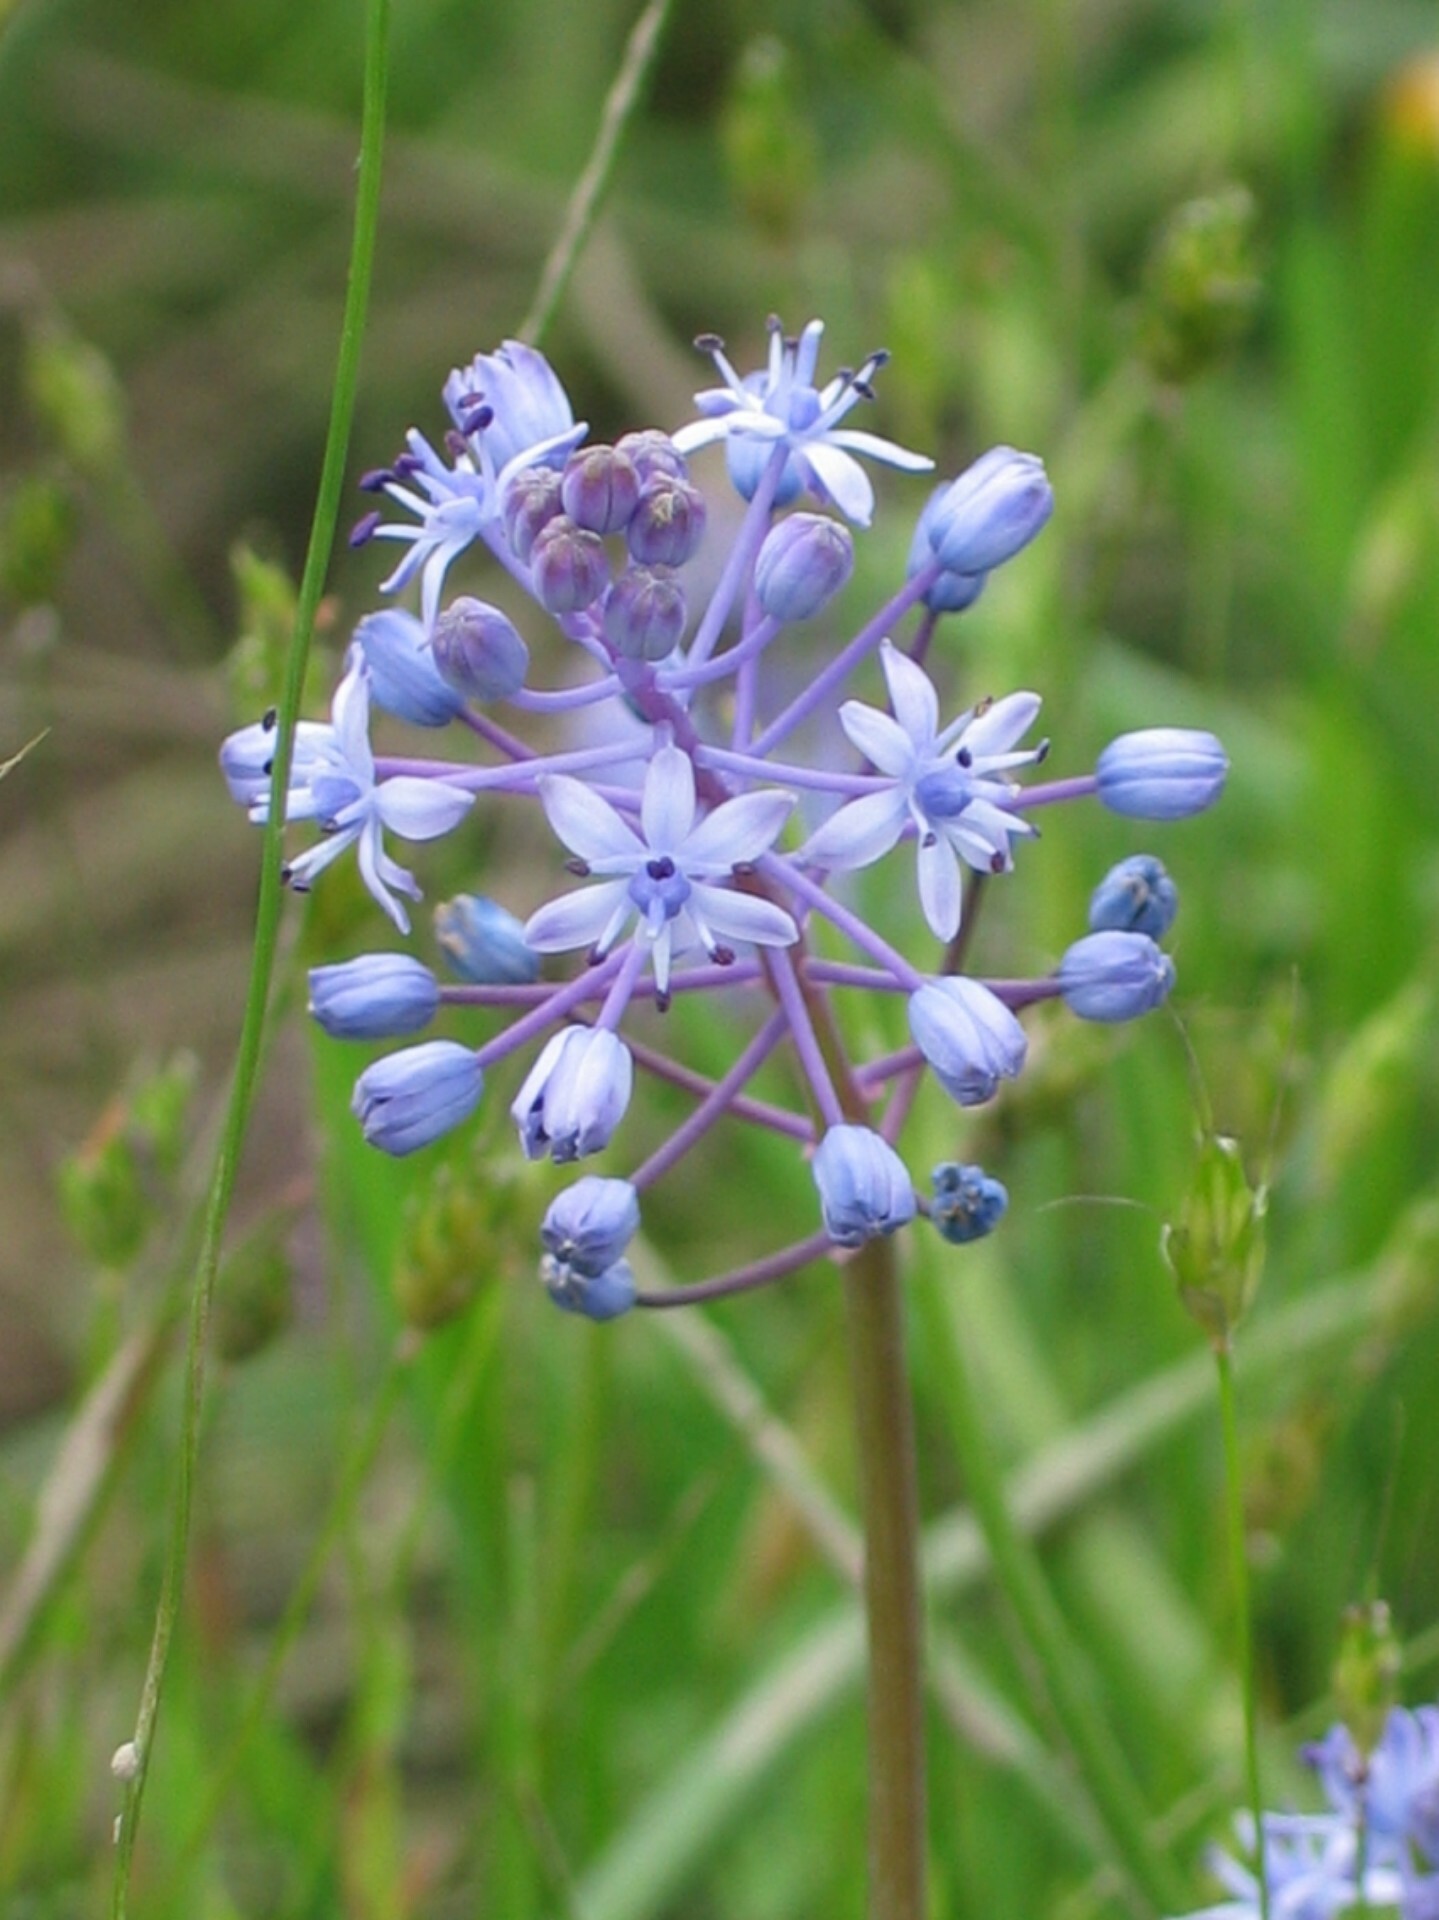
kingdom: Plantae
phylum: Tracheophyta
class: Liliopsida
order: Asparagales
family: Asparagaceae
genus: Scilla
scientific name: Scilla litardierei
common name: Amethyst meadow squill
